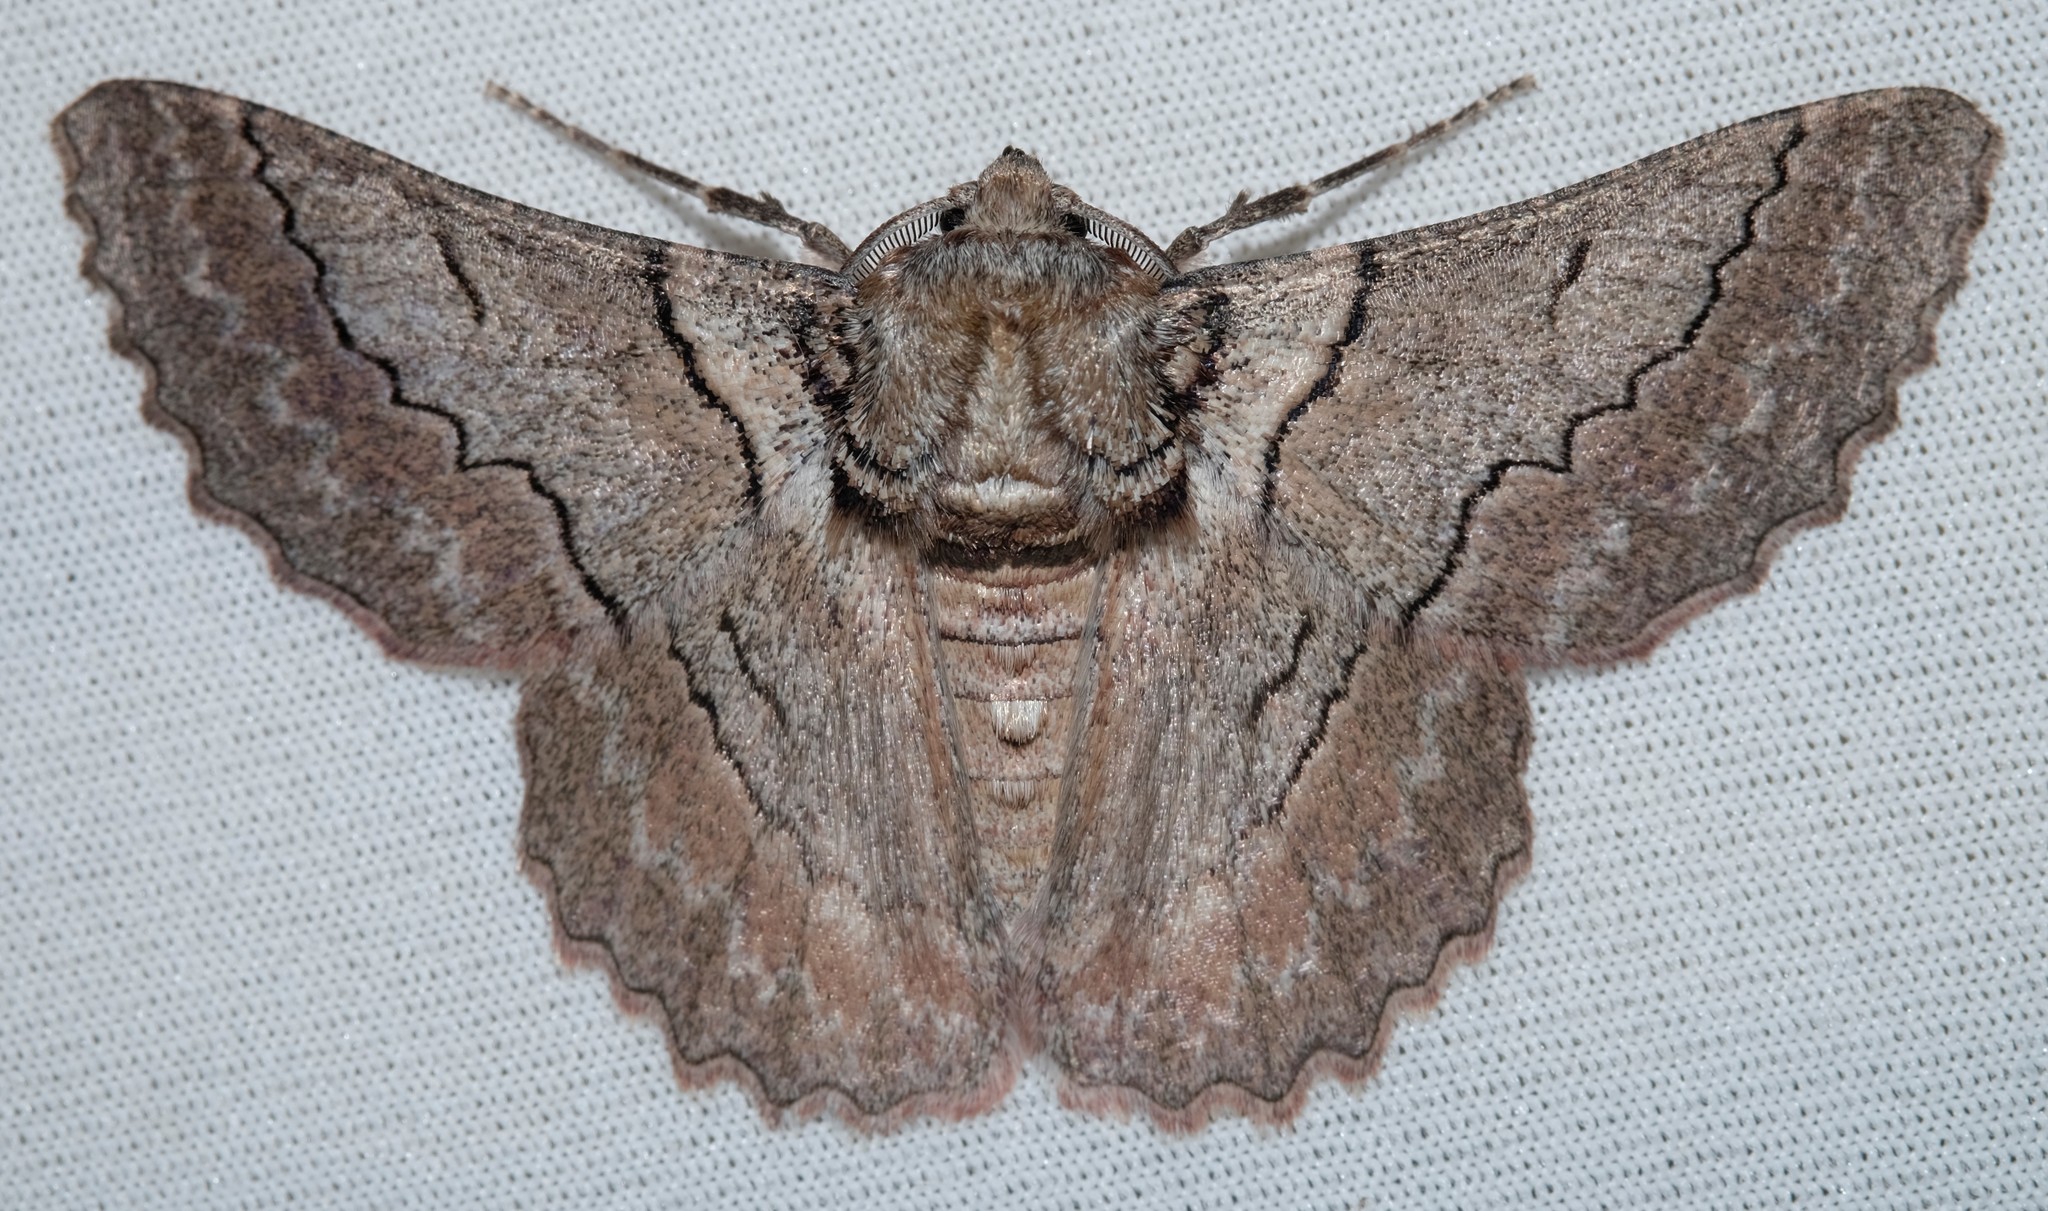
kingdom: Animalia
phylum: Arthropoda
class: Insecta
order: Lepidoptera
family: Geometridae
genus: Hypobapta
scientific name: Hypobapta tachyhalotaria
